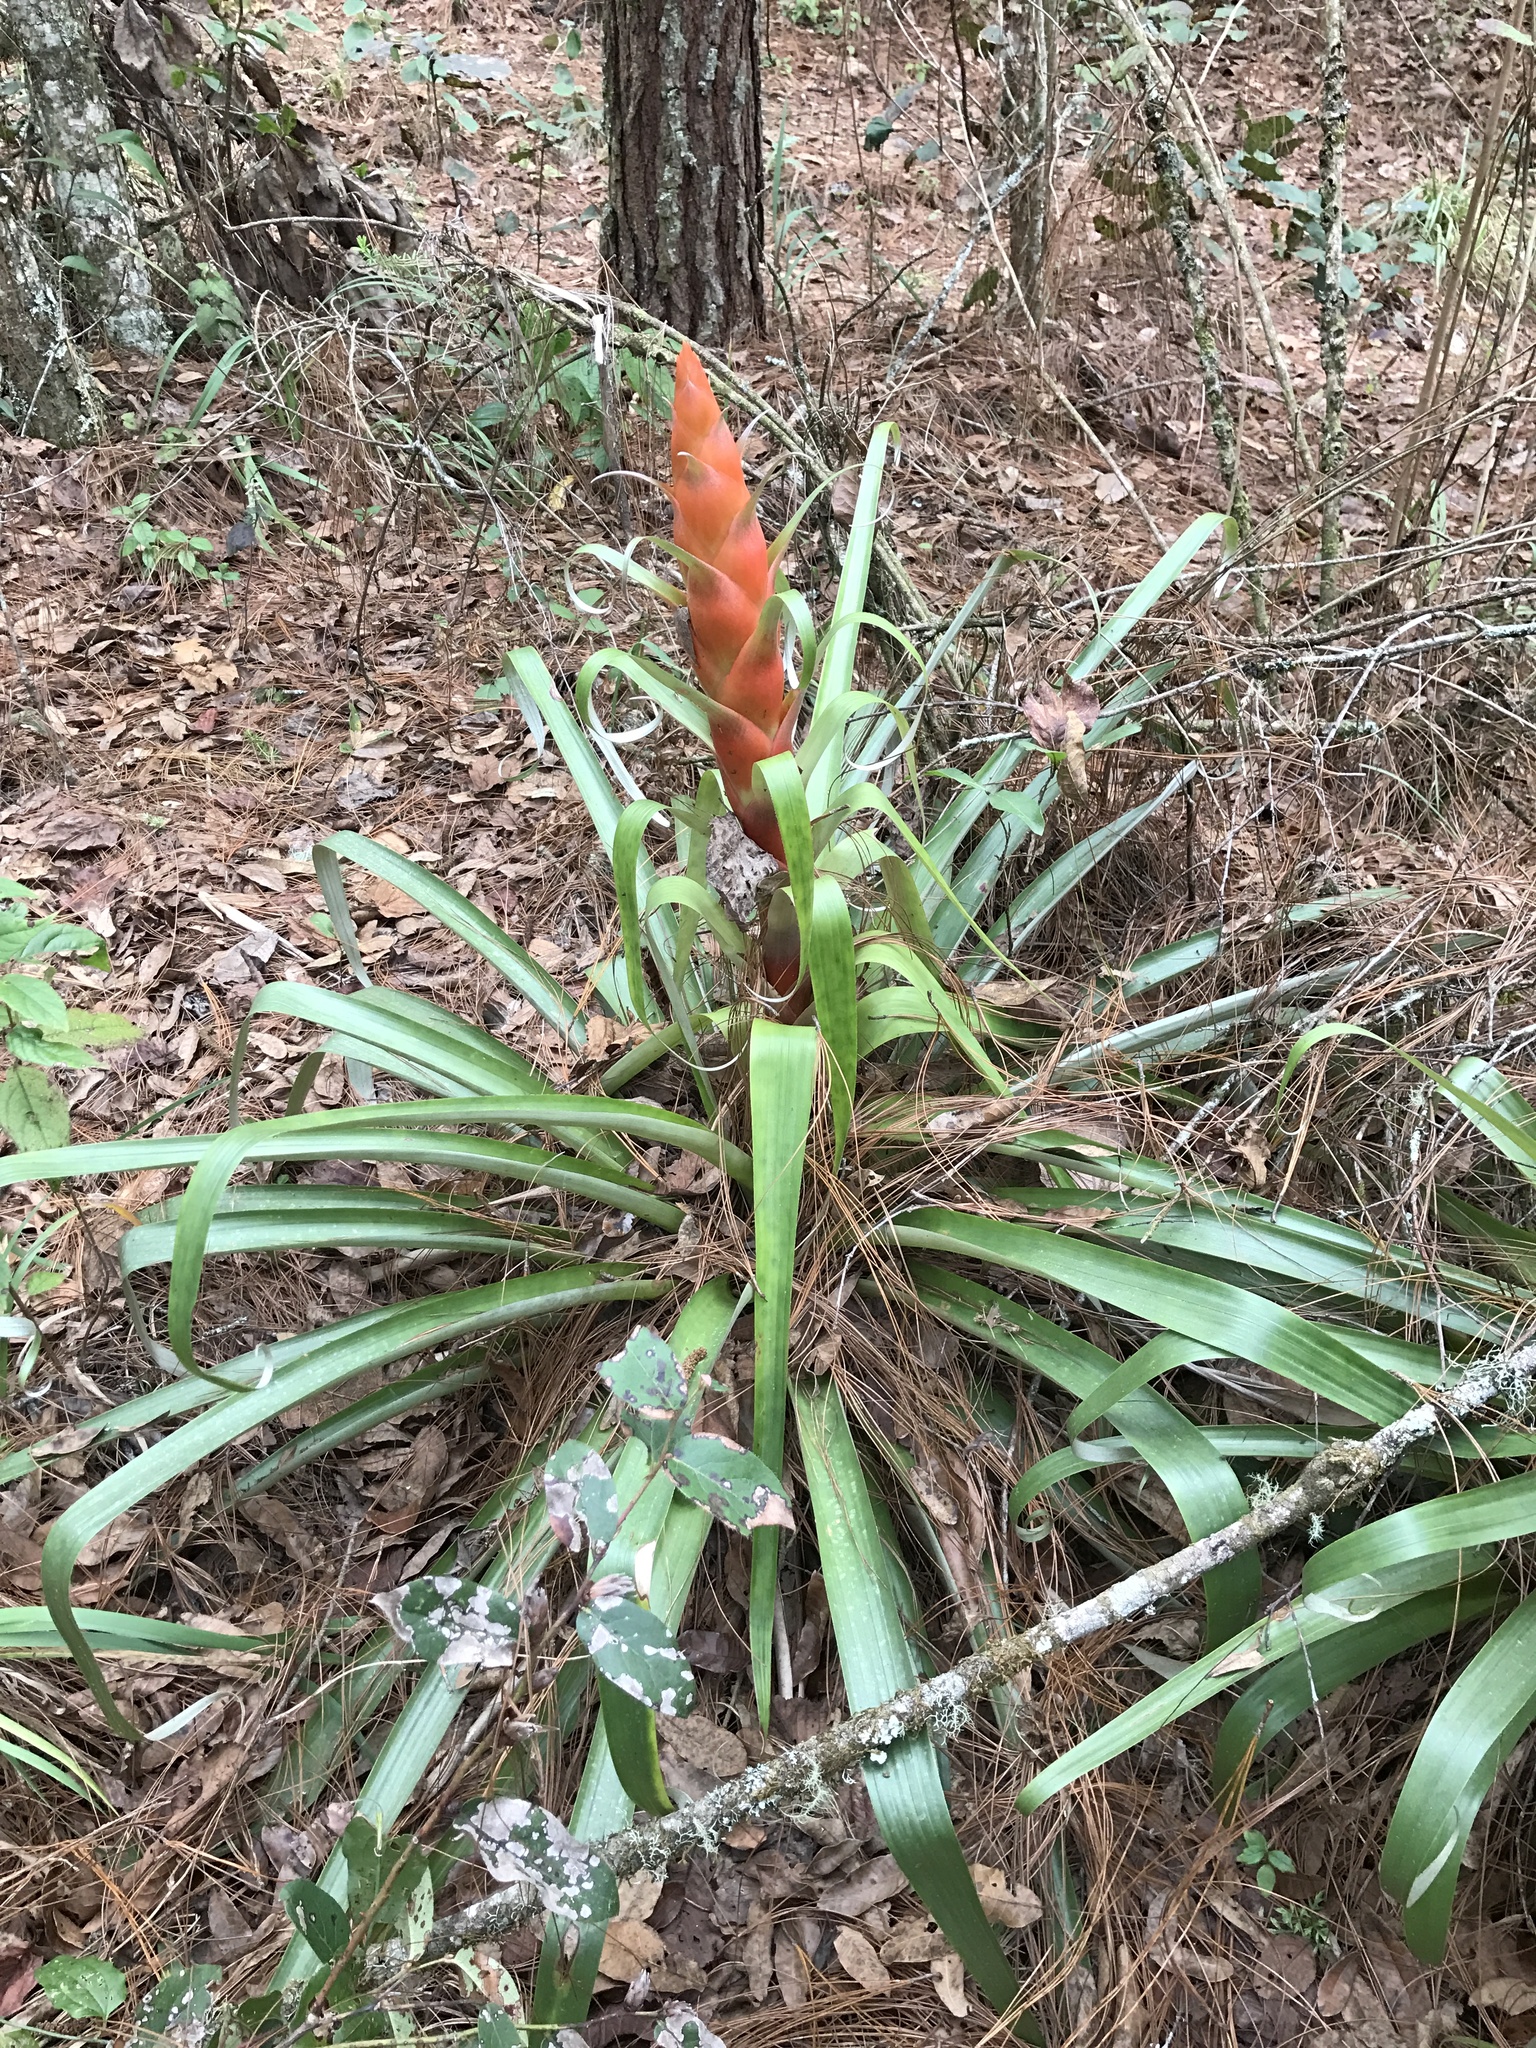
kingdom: Plantae
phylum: Tracheophyta
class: Liliopsida
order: Poales
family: Bromeliaceae
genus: Tillandsia
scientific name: Tillandsia ponderosa
